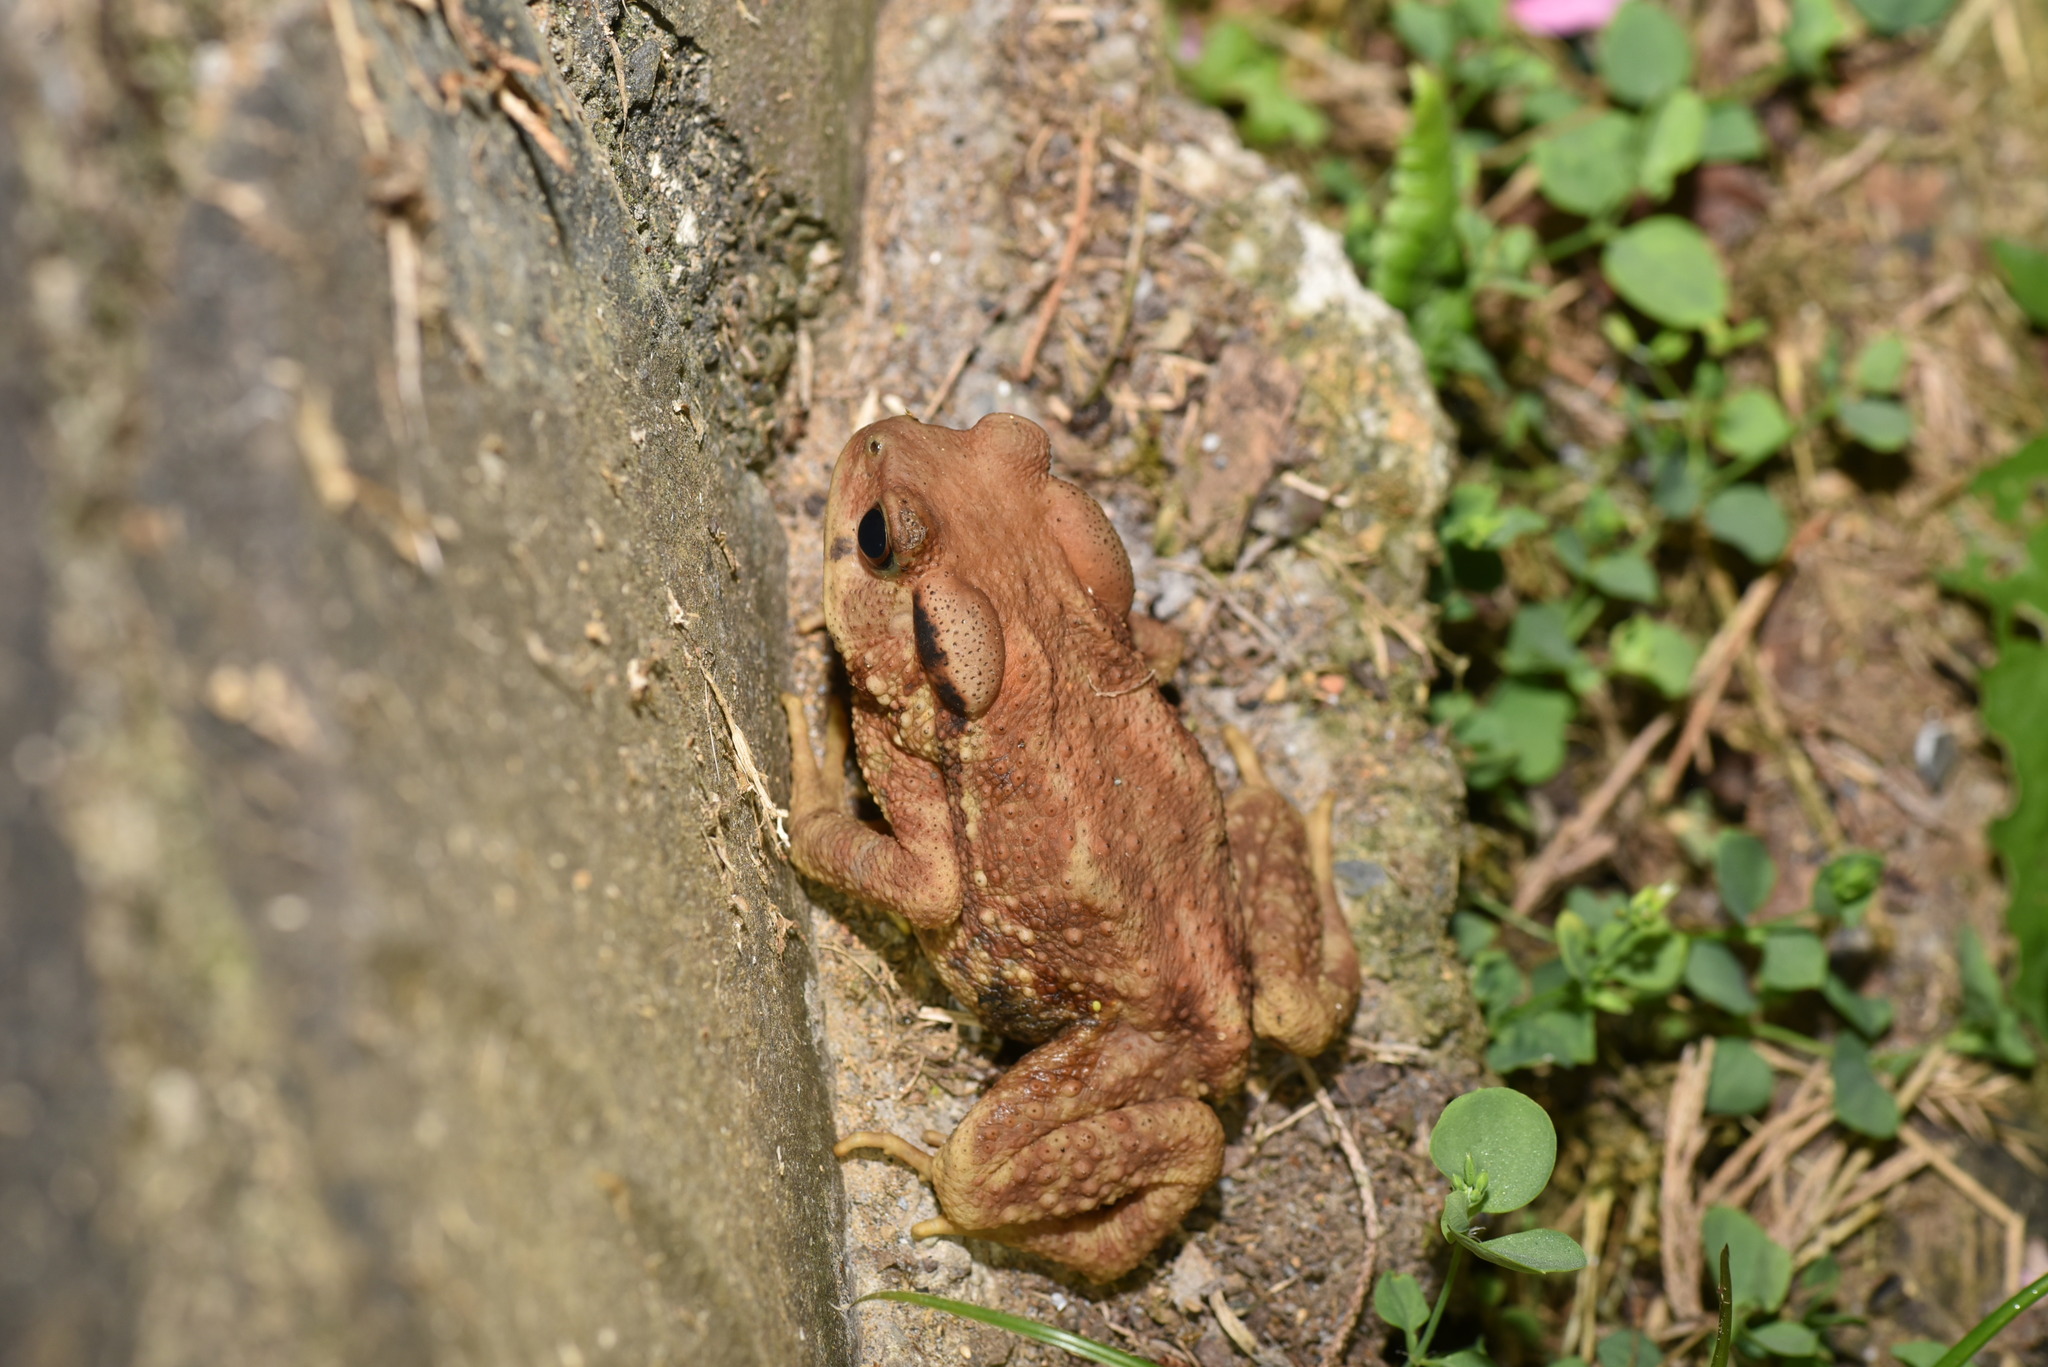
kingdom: Animalia
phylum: Chordata
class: Amphibia
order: Anura
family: Bufonidae
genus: Bufo
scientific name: Bufo bankorensis
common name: Bankor toad
